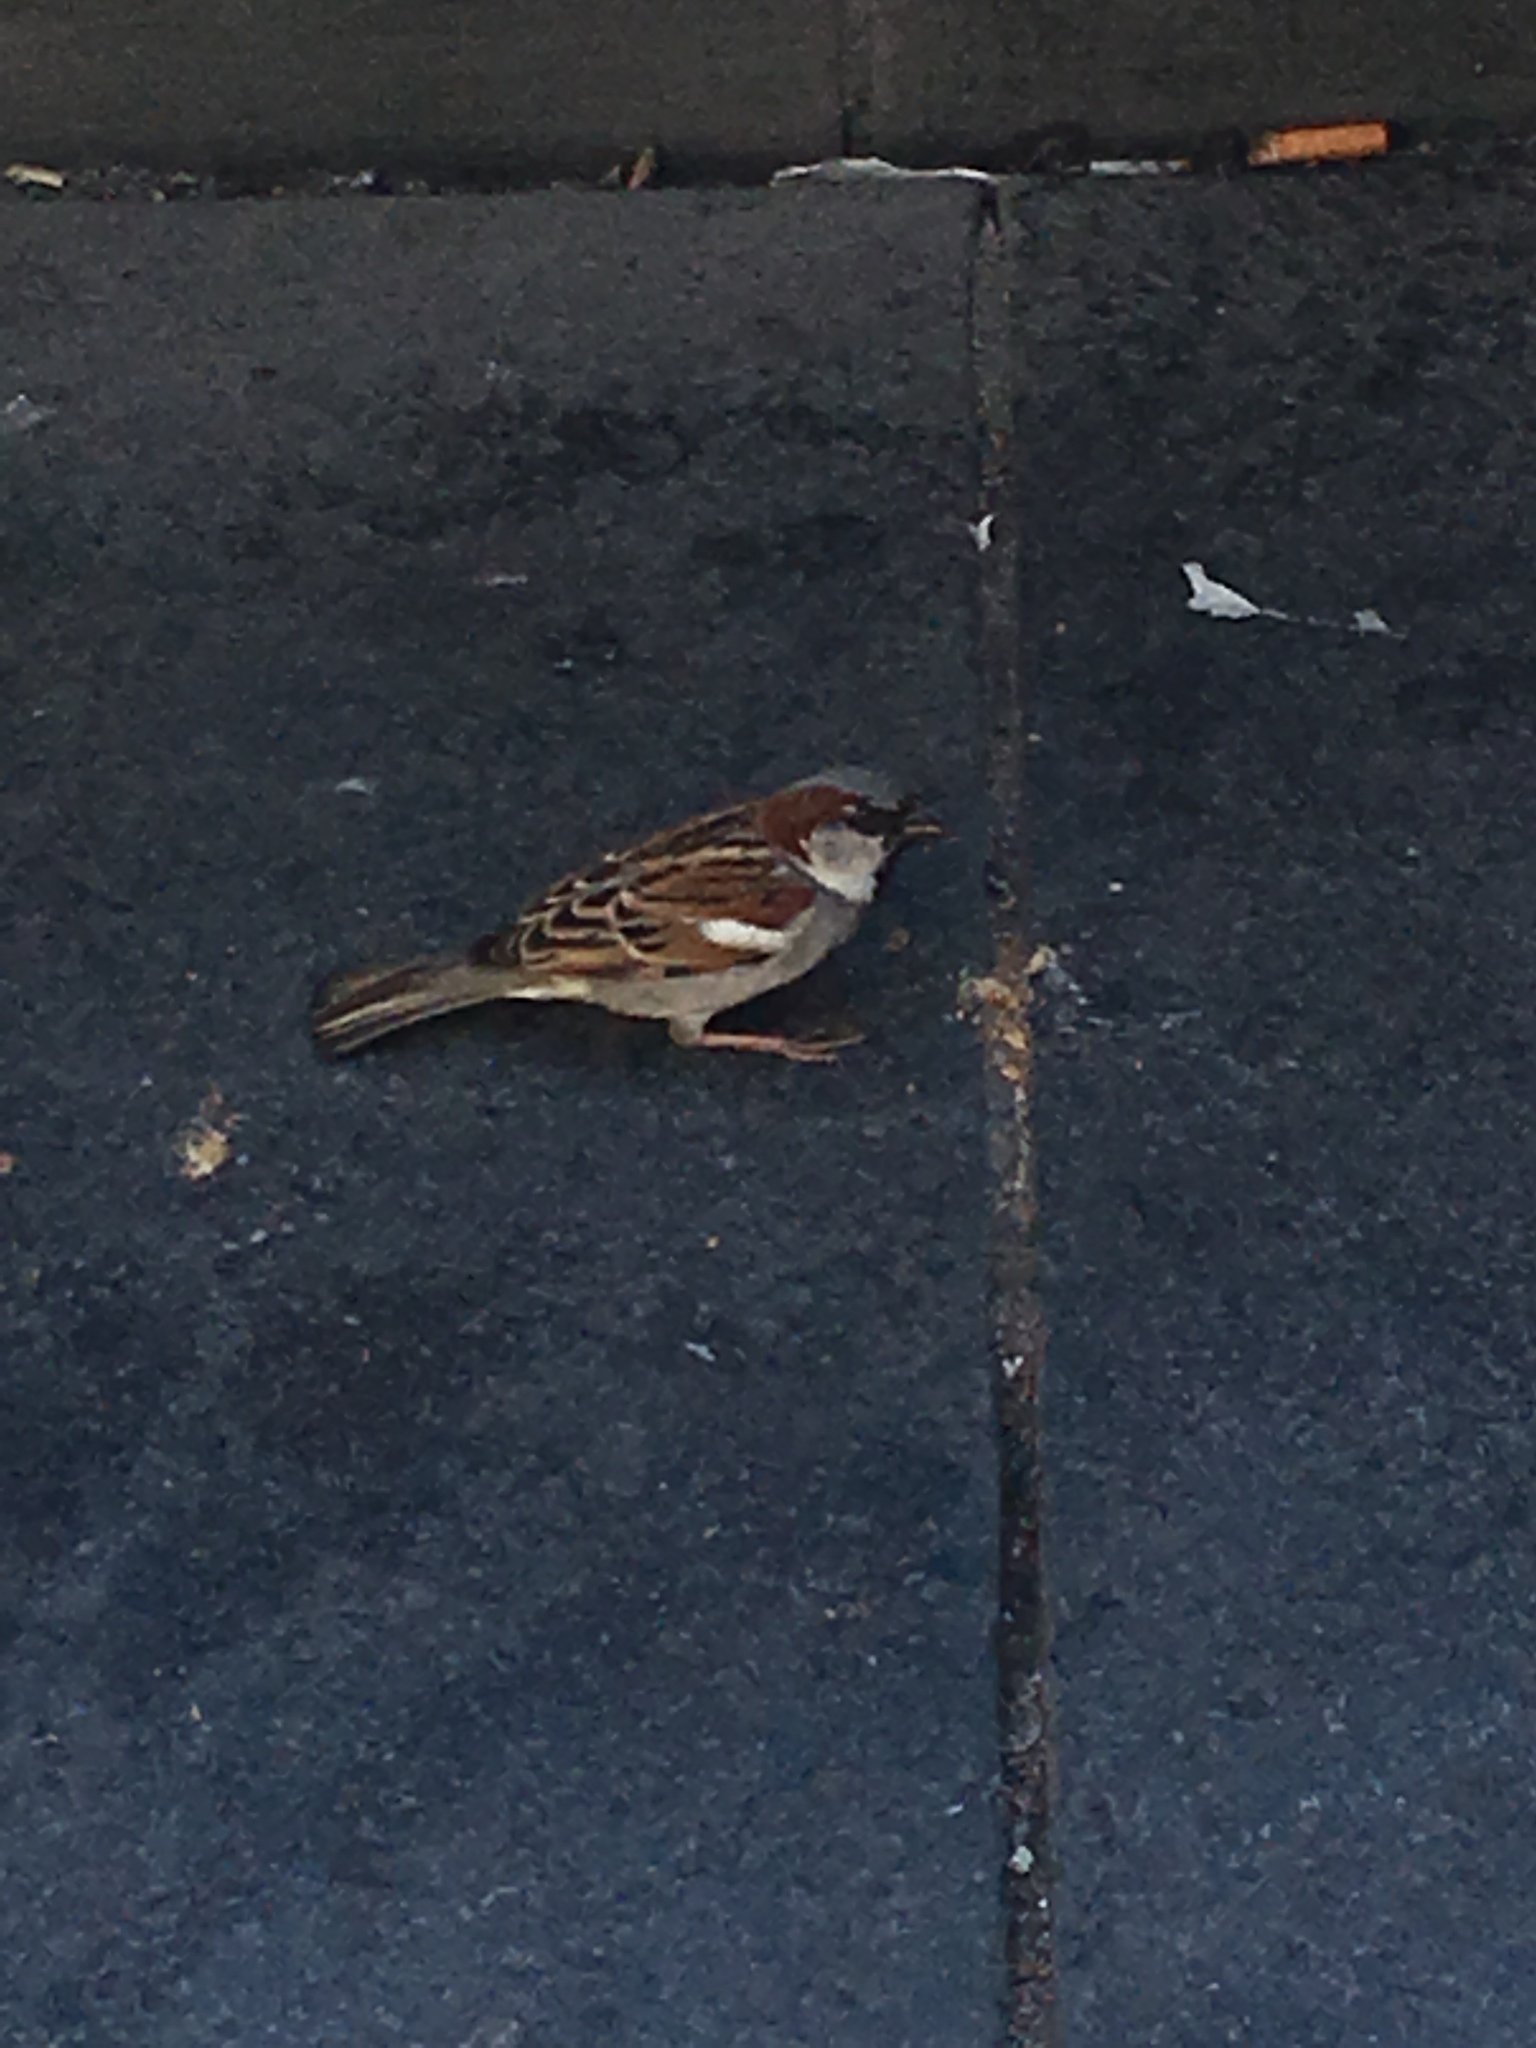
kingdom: Animalia
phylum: Chordata
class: Aves
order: Passeriformes
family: Passeridae
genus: Passer
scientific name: Passer domesticus
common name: House sparrow
